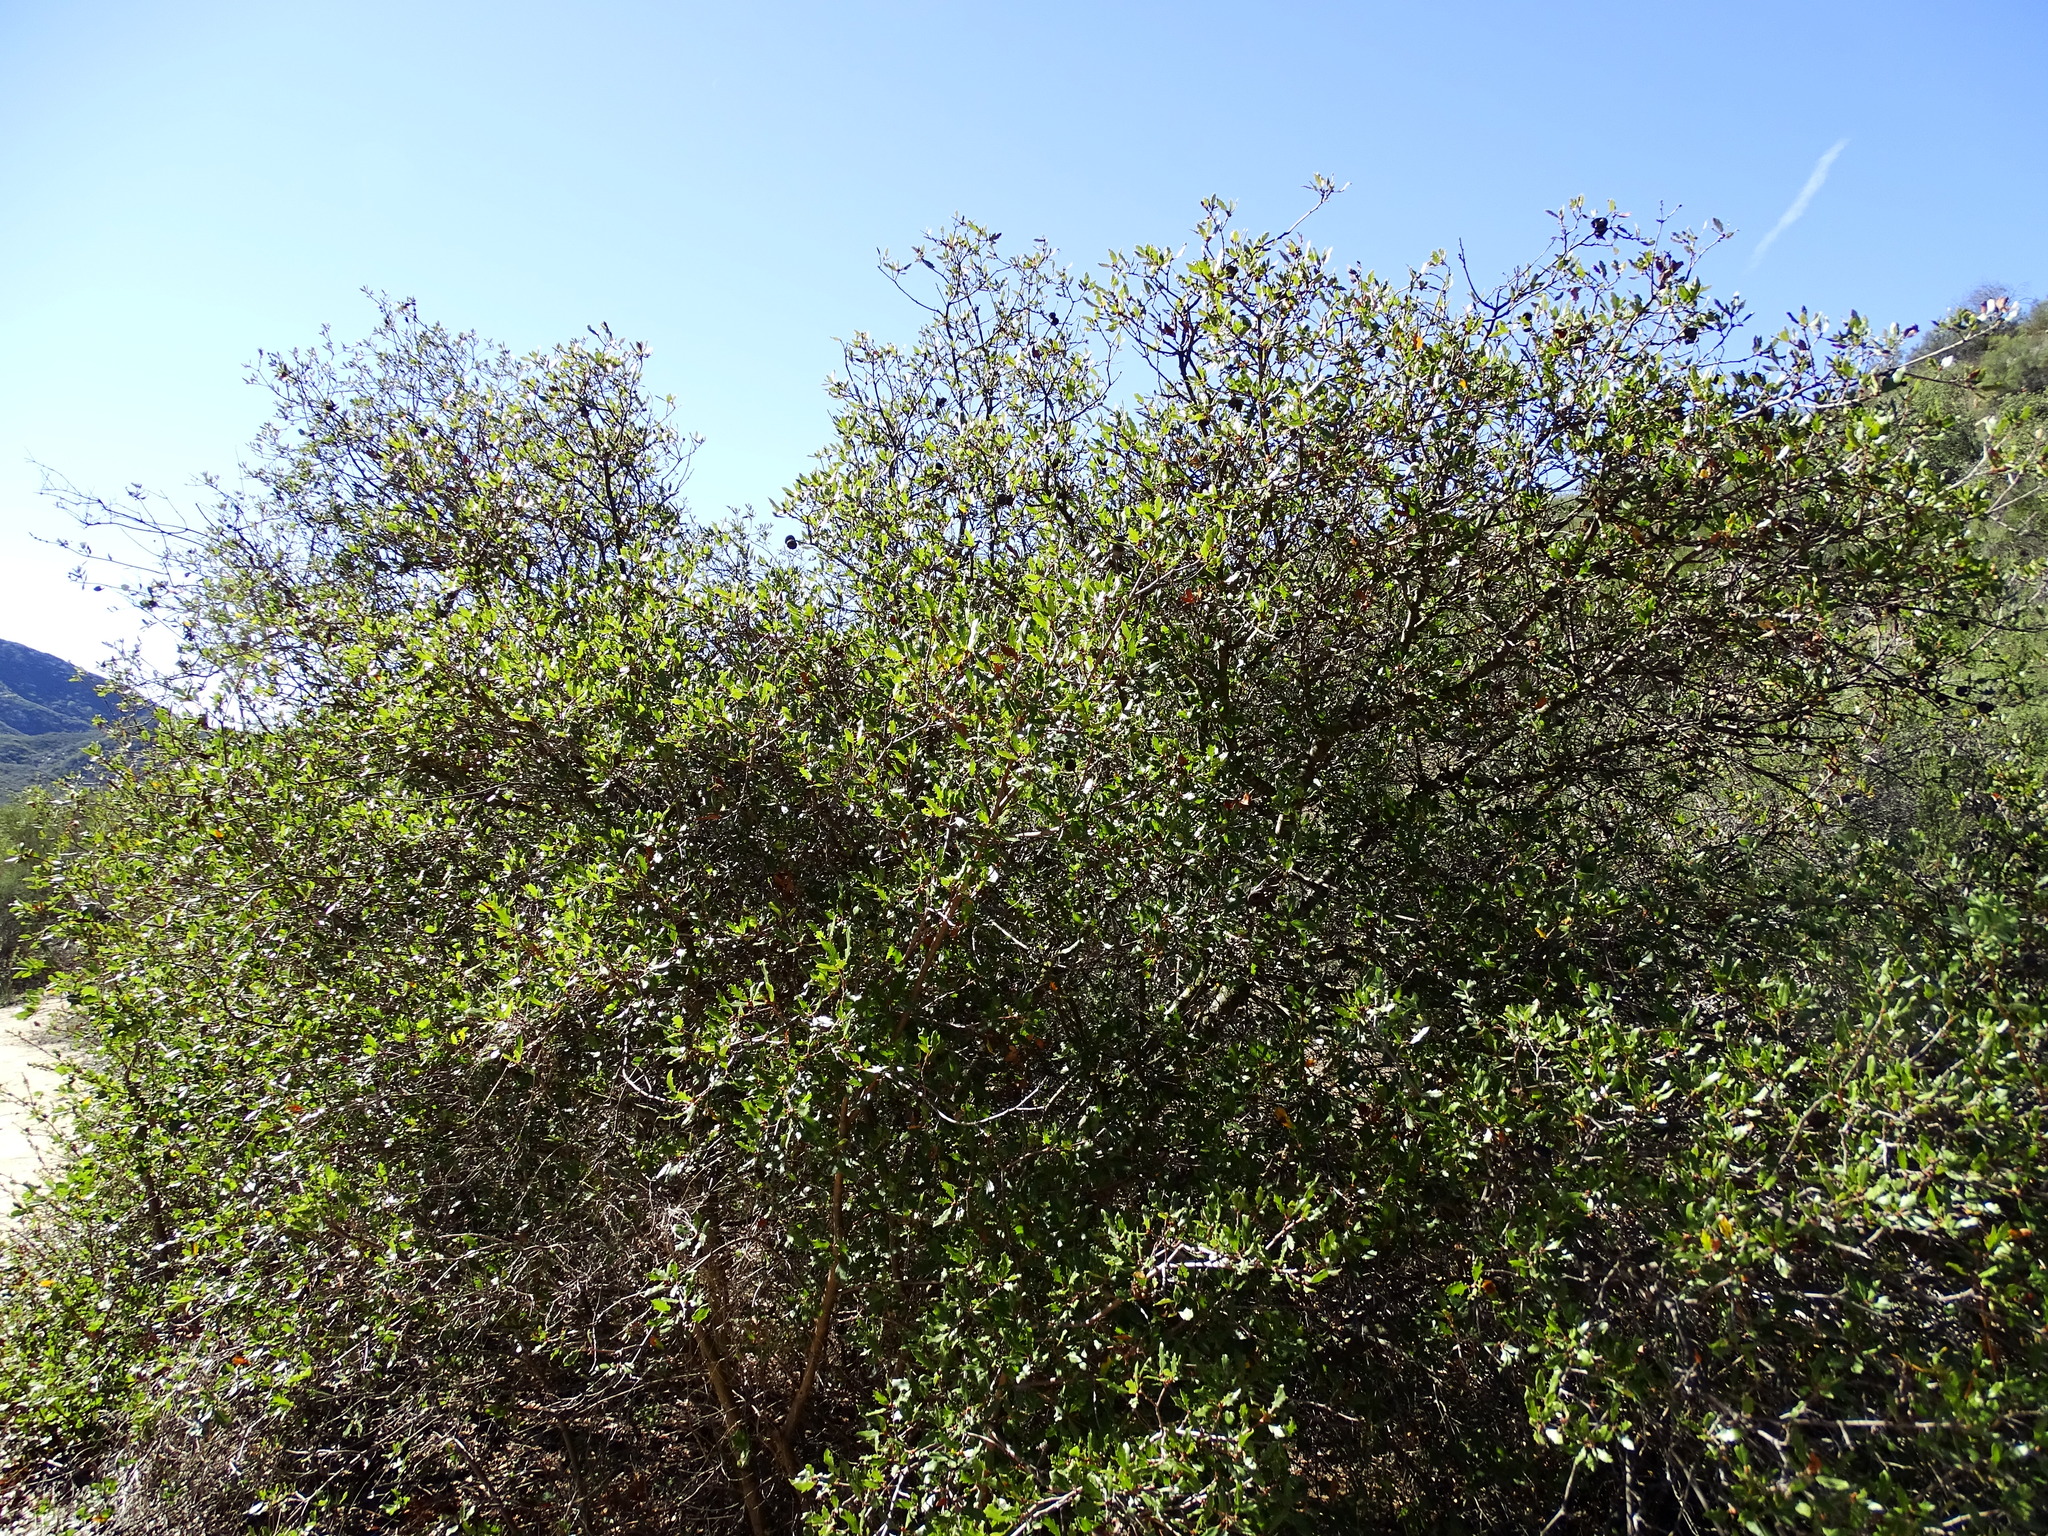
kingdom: Plantae
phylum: Tracheophyta
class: Magnoliopsida
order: Fagales
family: Fagaceae
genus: Quercus
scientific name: Quercus berberidifolia
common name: California scrub oak
